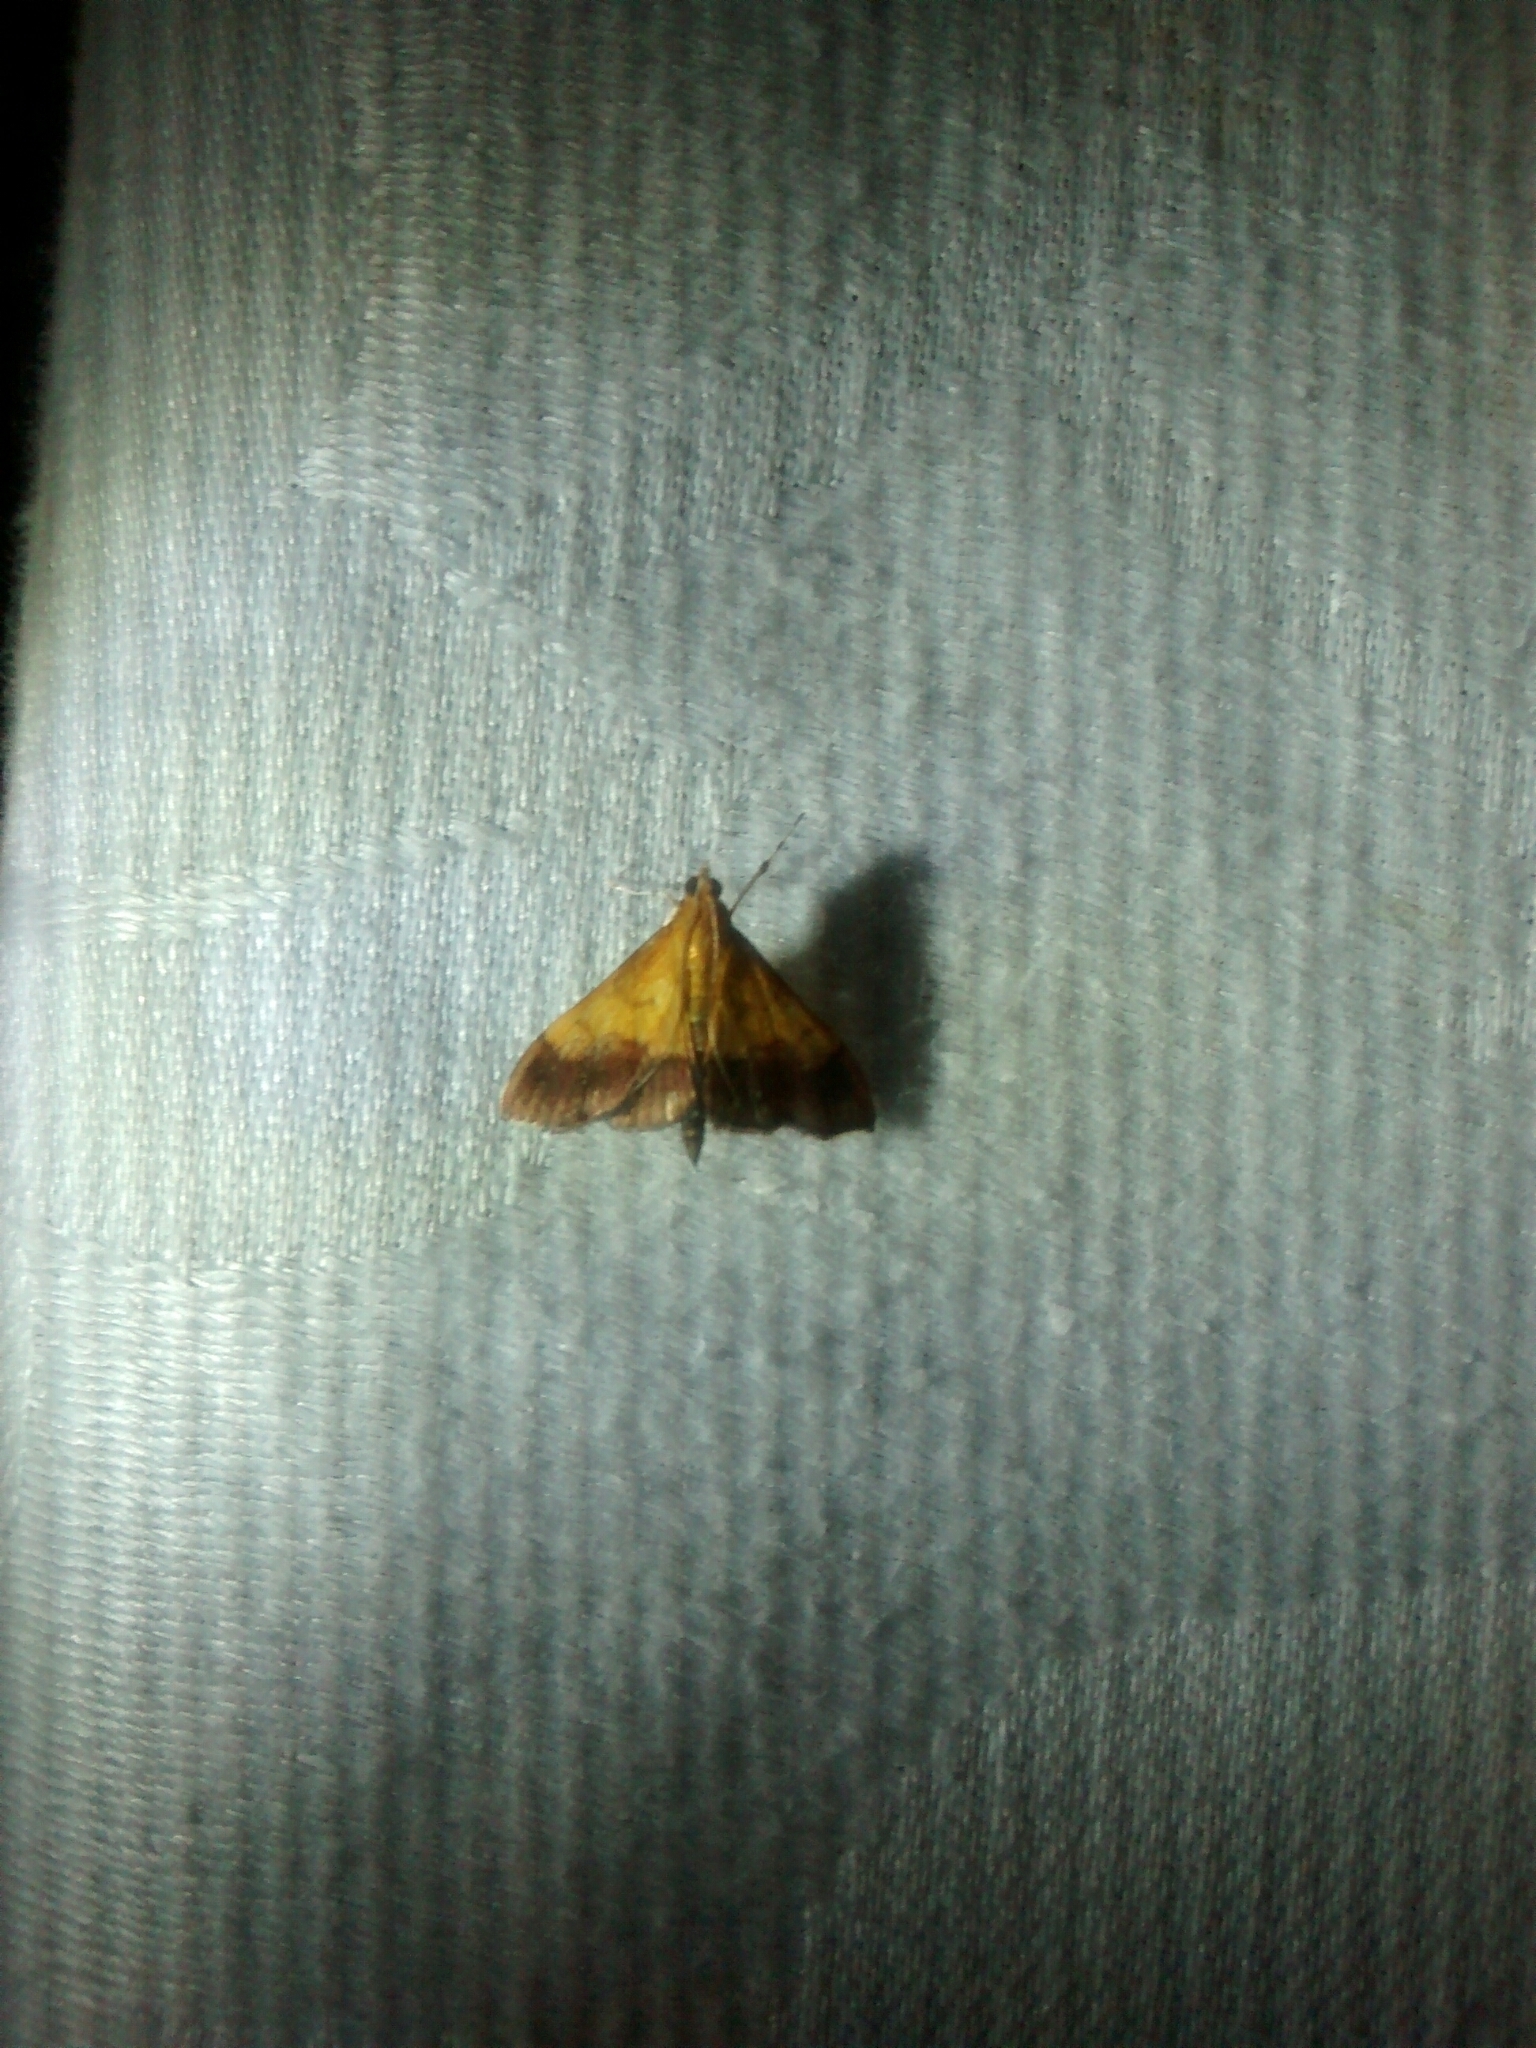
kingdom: Animalia
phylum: Arthropoda
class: Insecta
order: Lepidoptera
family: Crambidae
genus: Pyrausta
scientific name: Pyrausta bicoloralis
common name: Bicolored pyrausta moth
